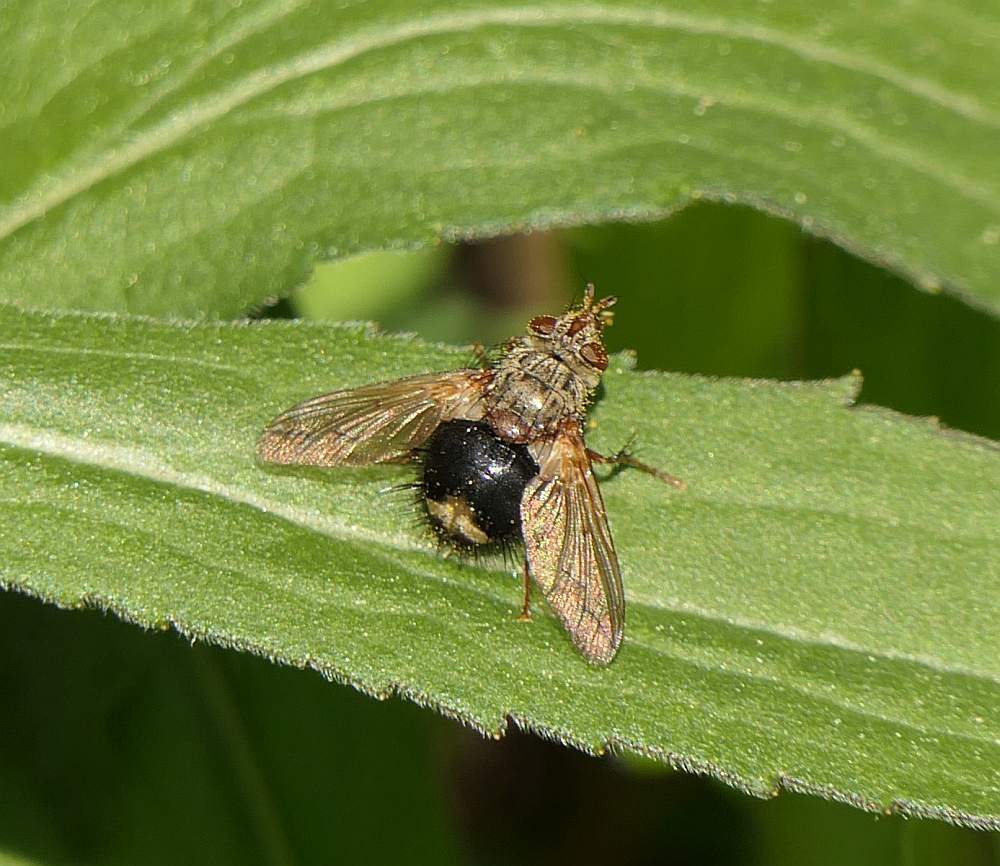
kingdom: Animalia
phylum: Arthropoda
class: Insecta
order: Diptera
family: Tachinidae
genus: Epalpus
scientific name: Epalpus signifer
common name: Early tachinid fly
